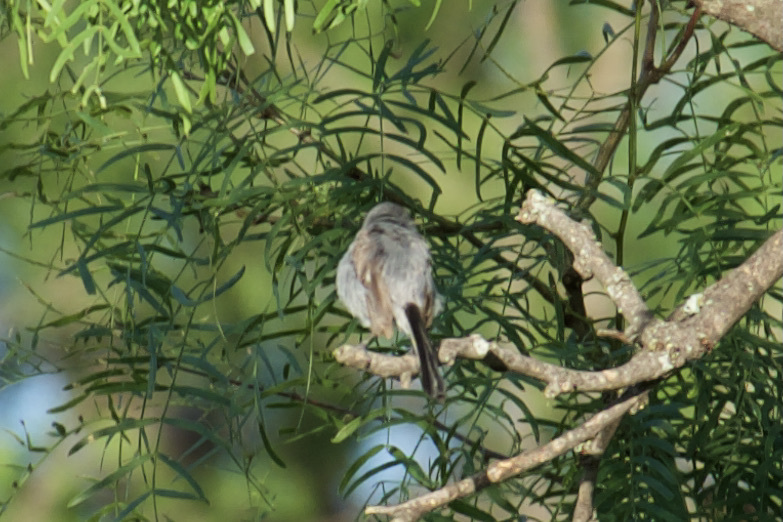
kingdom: Animalia
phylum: Chordata
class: Aves
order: Passeriformes
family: Polioptilidae
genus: Polioptila
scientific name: Polioptila caerulea
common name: Blue-gray gnatcatcher
